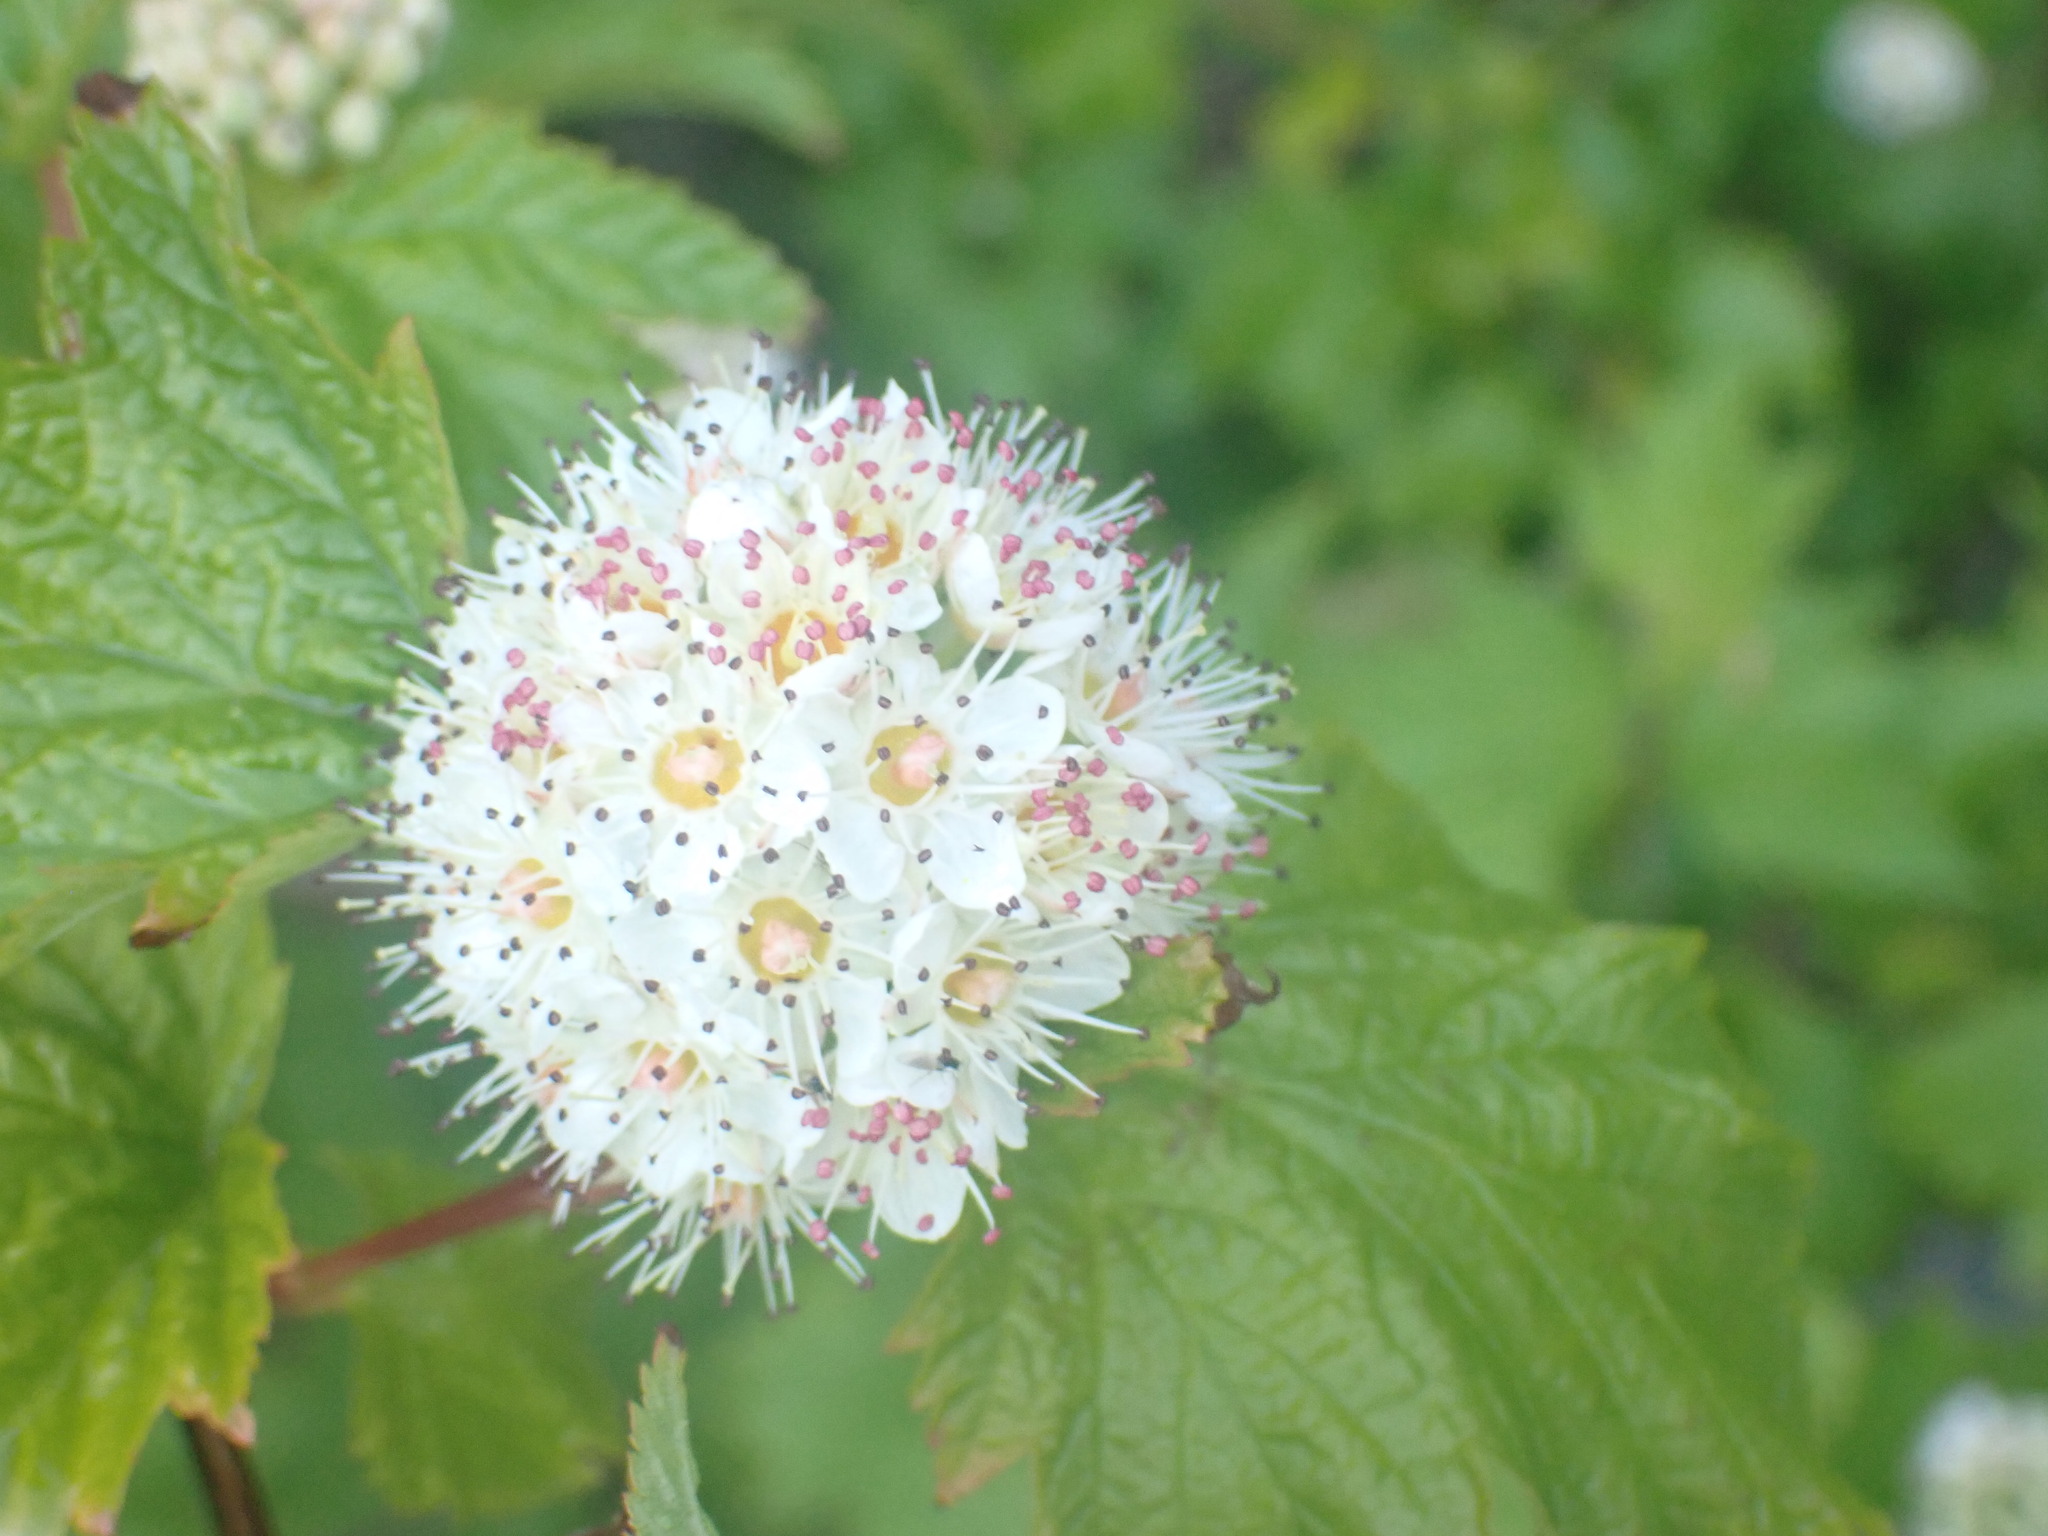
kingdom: Plantae
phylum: Tracheophyta
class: Magnoliopsida
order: Rosales
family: Rosaceae
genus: Physocarpus
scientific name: Physocarpus capitatus
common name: Pacific ninebark
